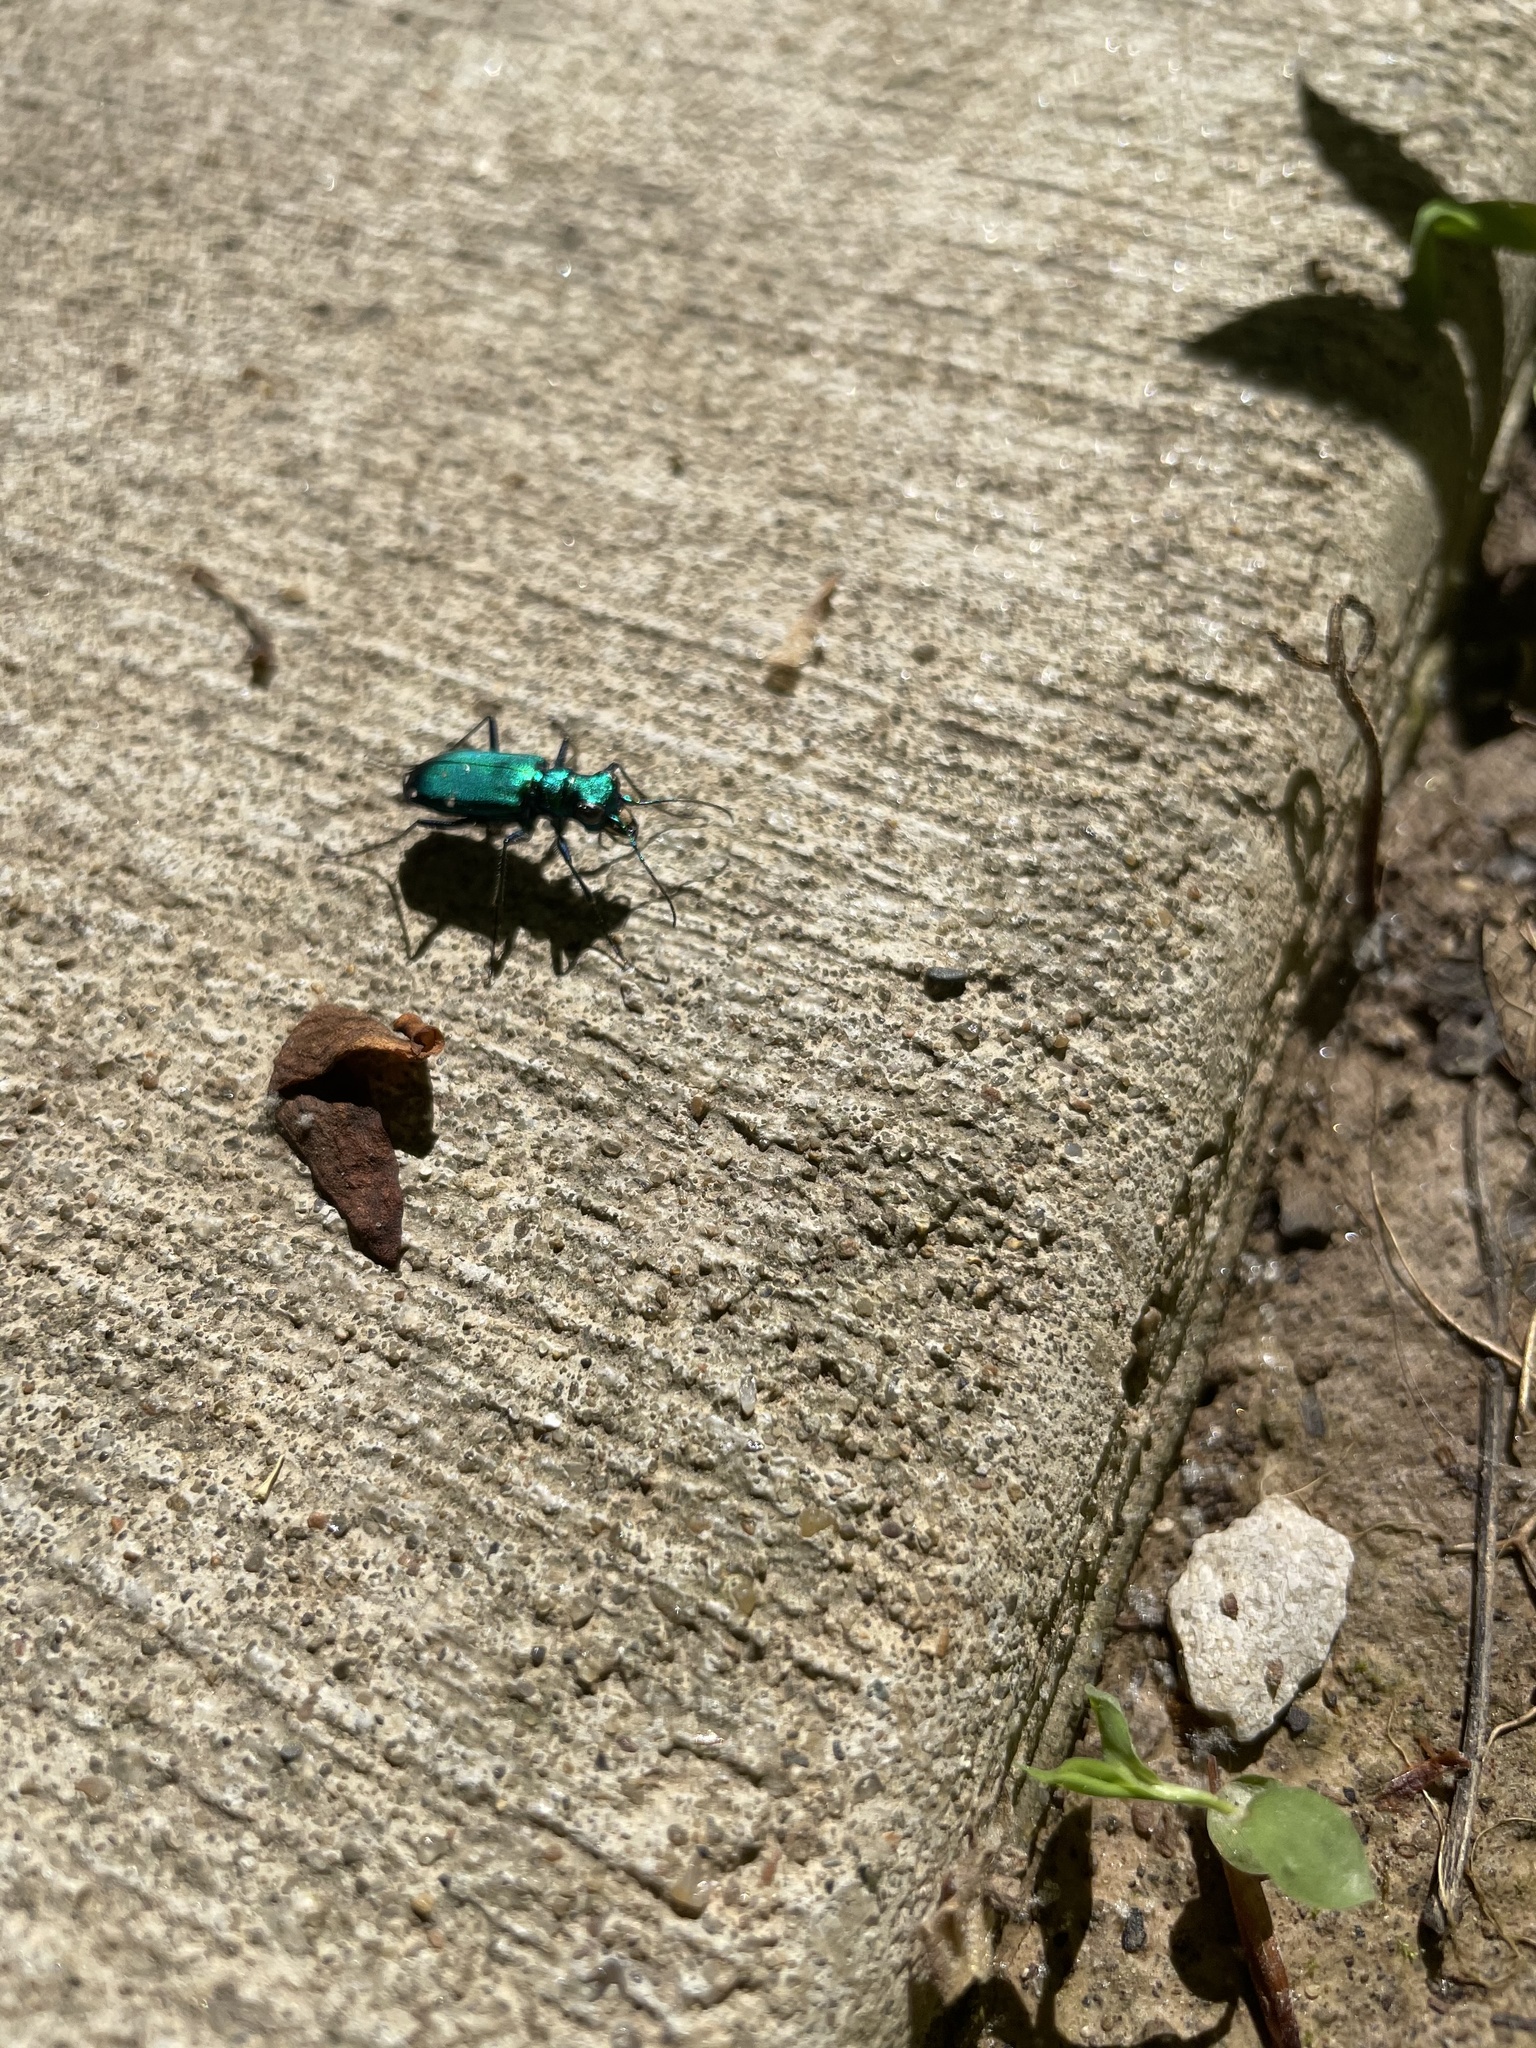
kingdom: Animalia
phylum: Arthropoda
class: Insecta
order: Coleoptera
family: Carabidae
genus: Cicindela
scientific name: Cicindela sexguttata
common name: Six-spotted tiger beetle
